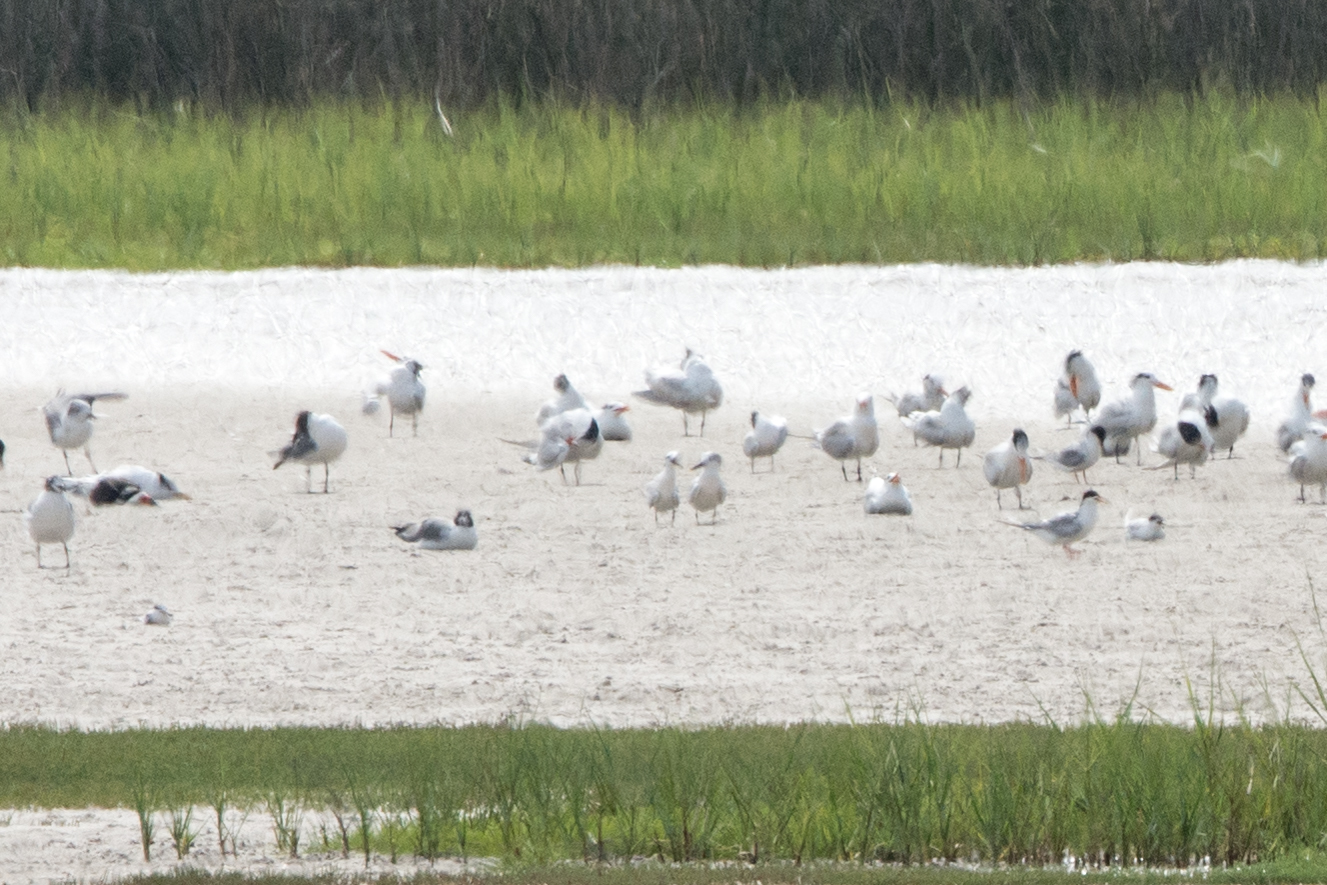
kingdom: Animalia
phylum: Chordata
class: Aves
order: Charadriiformes
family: Laridae
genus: Thalasseus
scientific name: Thalasseus sandvicensis
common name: Sandwich tern
